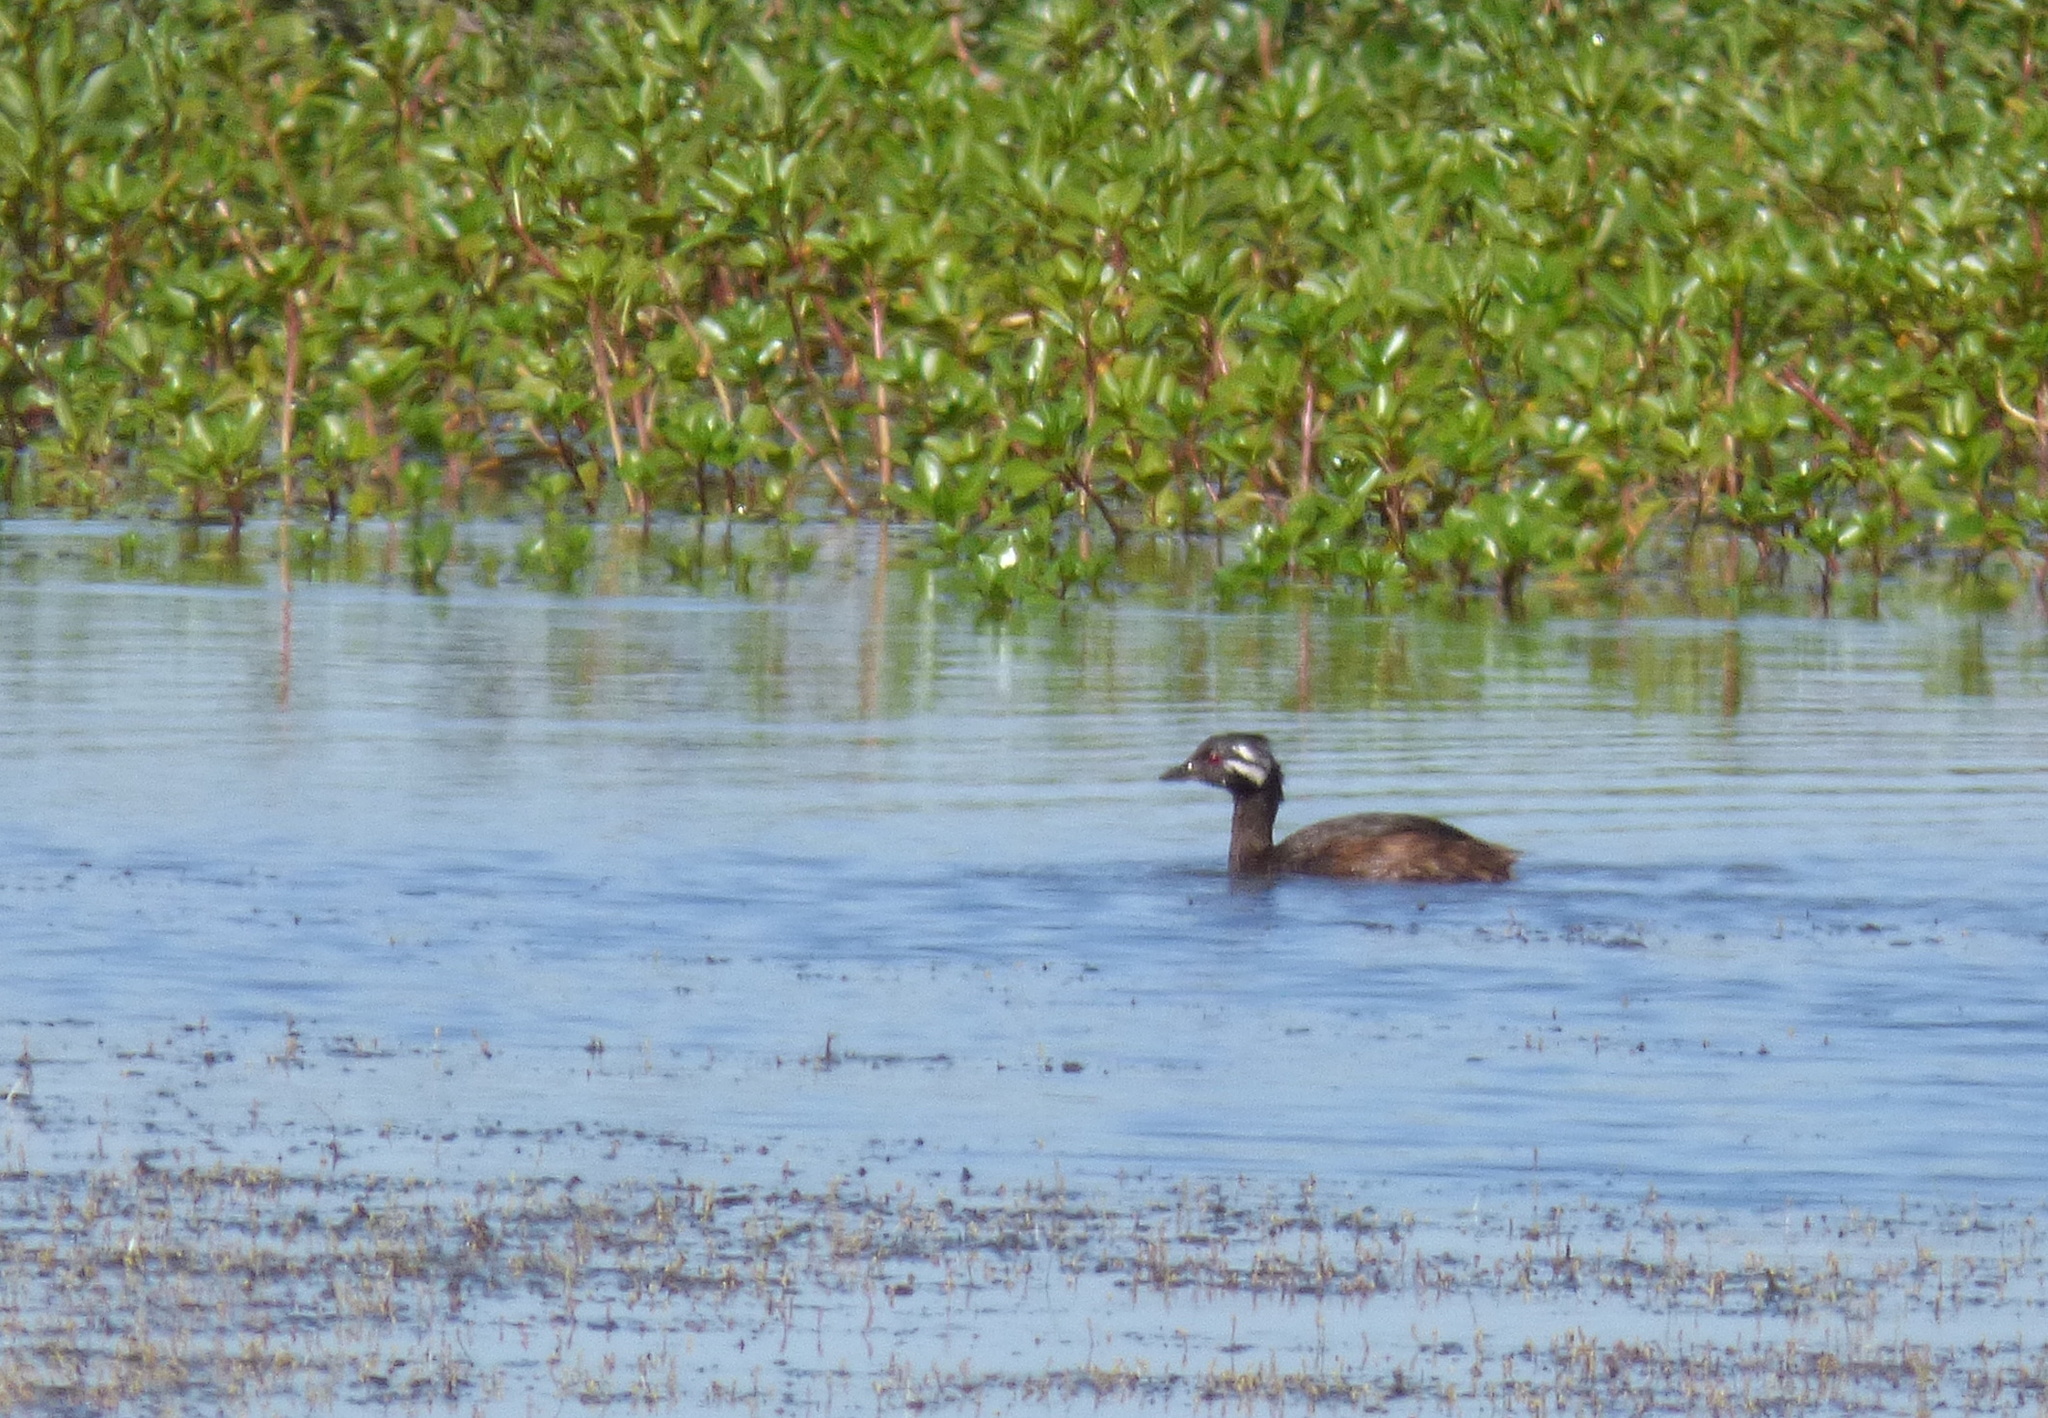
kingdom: Animalia
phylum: Chordata
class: Aves
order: Podicipediformes
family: Podicipedidae
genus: Rollandia
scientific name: Rollandia rolland
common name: White-tufted grebe
